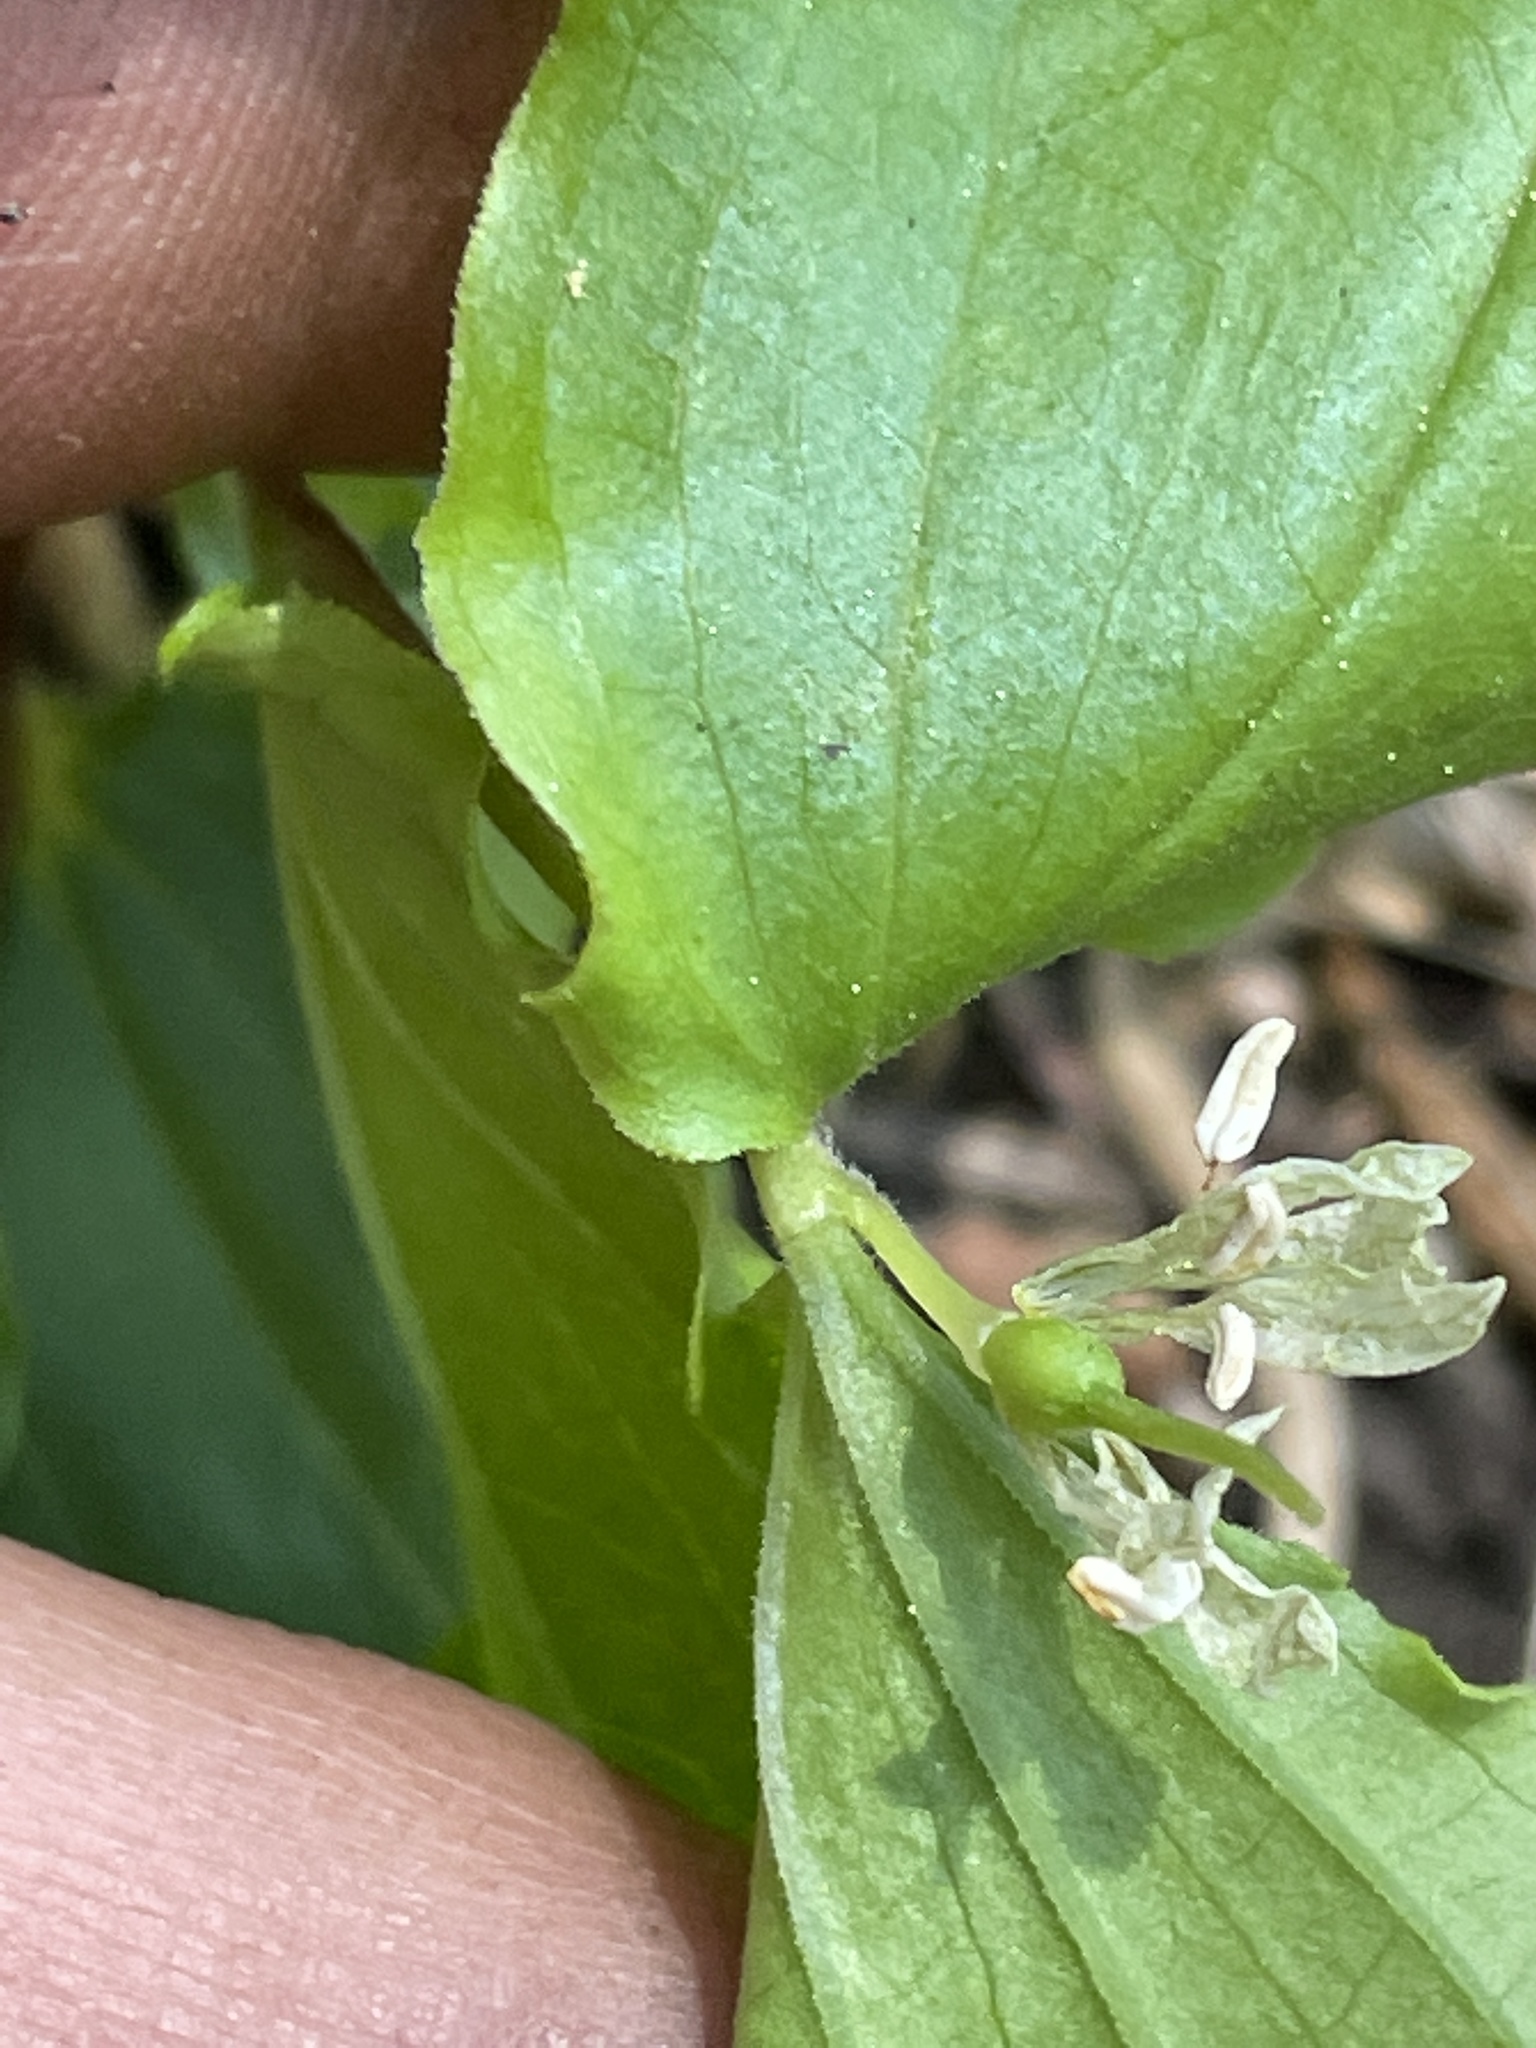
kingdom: Plantae
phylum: Tracheophyta
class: Liliopsida
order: Liliales
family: Liliaceae
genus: Prosartes
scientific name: Prosartes hookeri
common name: Fairy-bells
